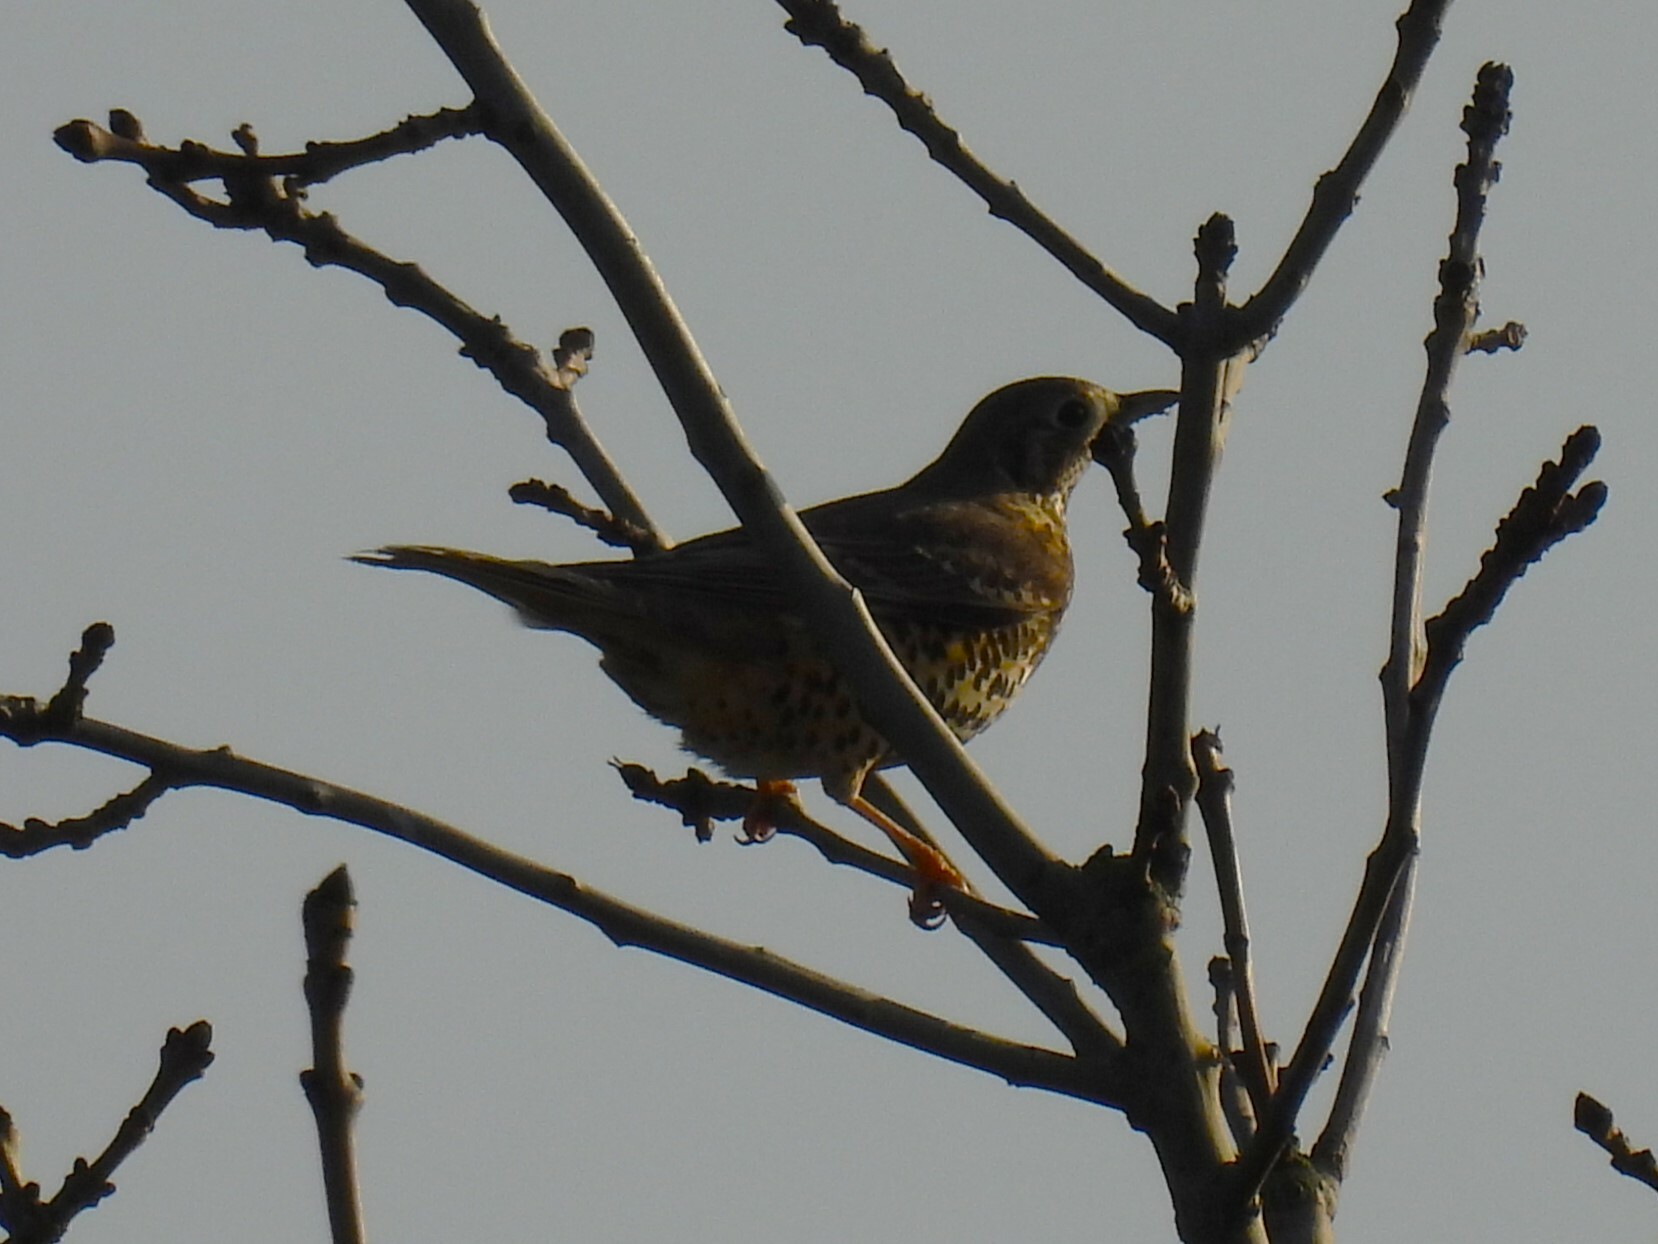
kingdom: Animalia
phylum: Chordata
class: Aves
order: Passeriformes
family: Turdidae
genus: Turdus
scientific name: Turdus viscivorus
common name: Mistle thrush
